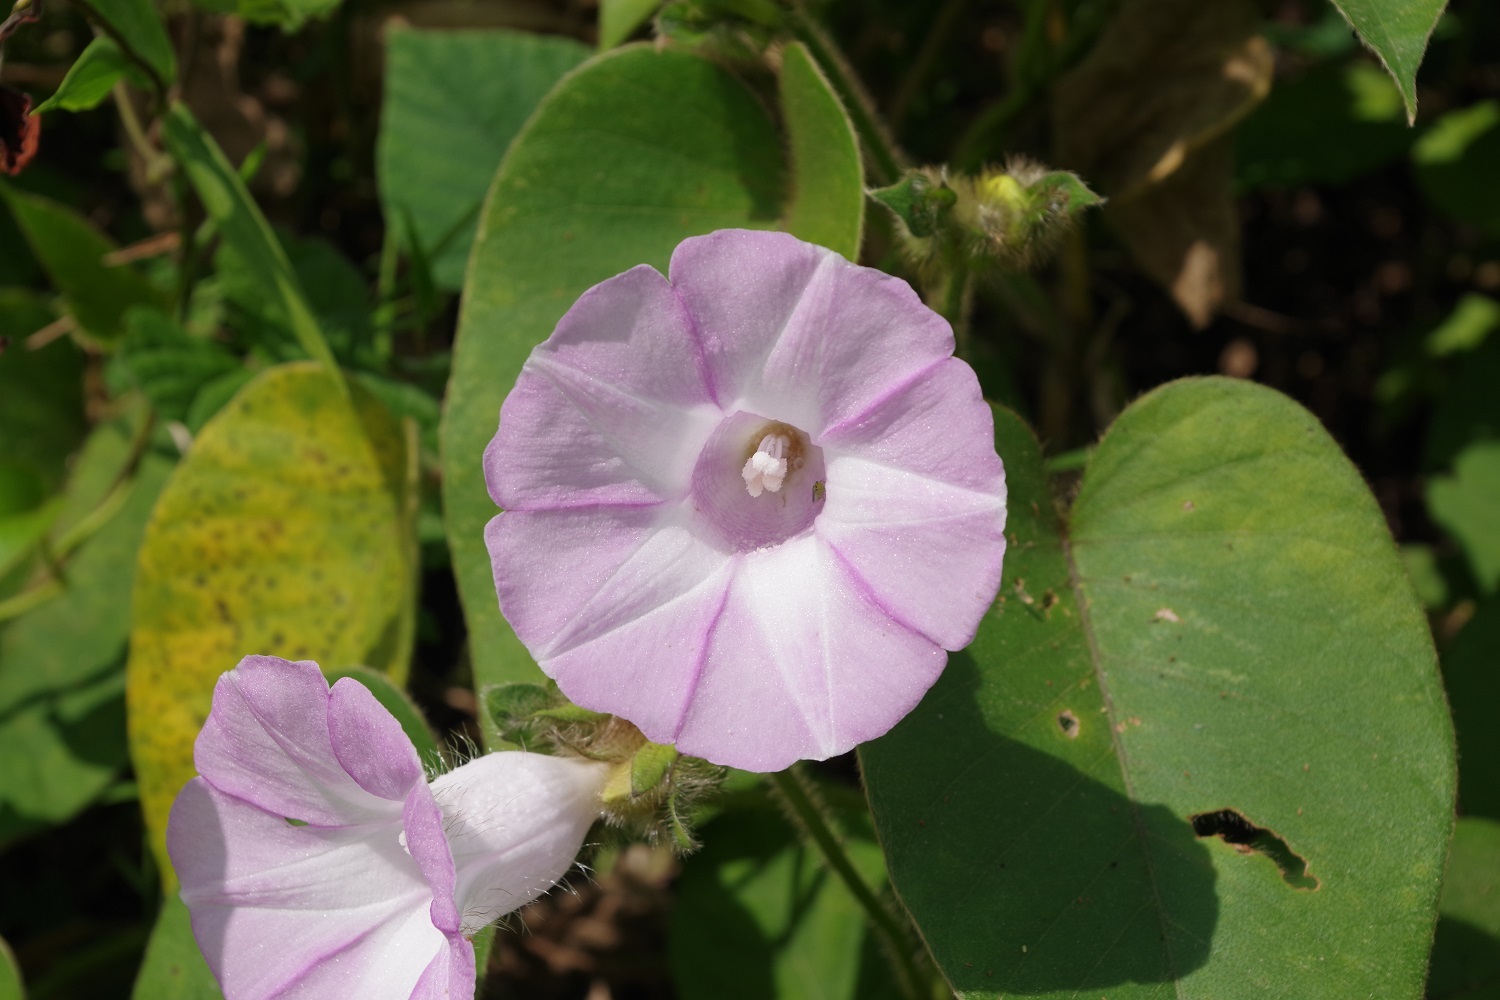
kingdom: Plantae
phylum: Tracheophyta
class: Magnoliopsida
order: Solanales
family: Convolvulaceae
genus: Argyreia
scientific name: Argyreia capitiformis
